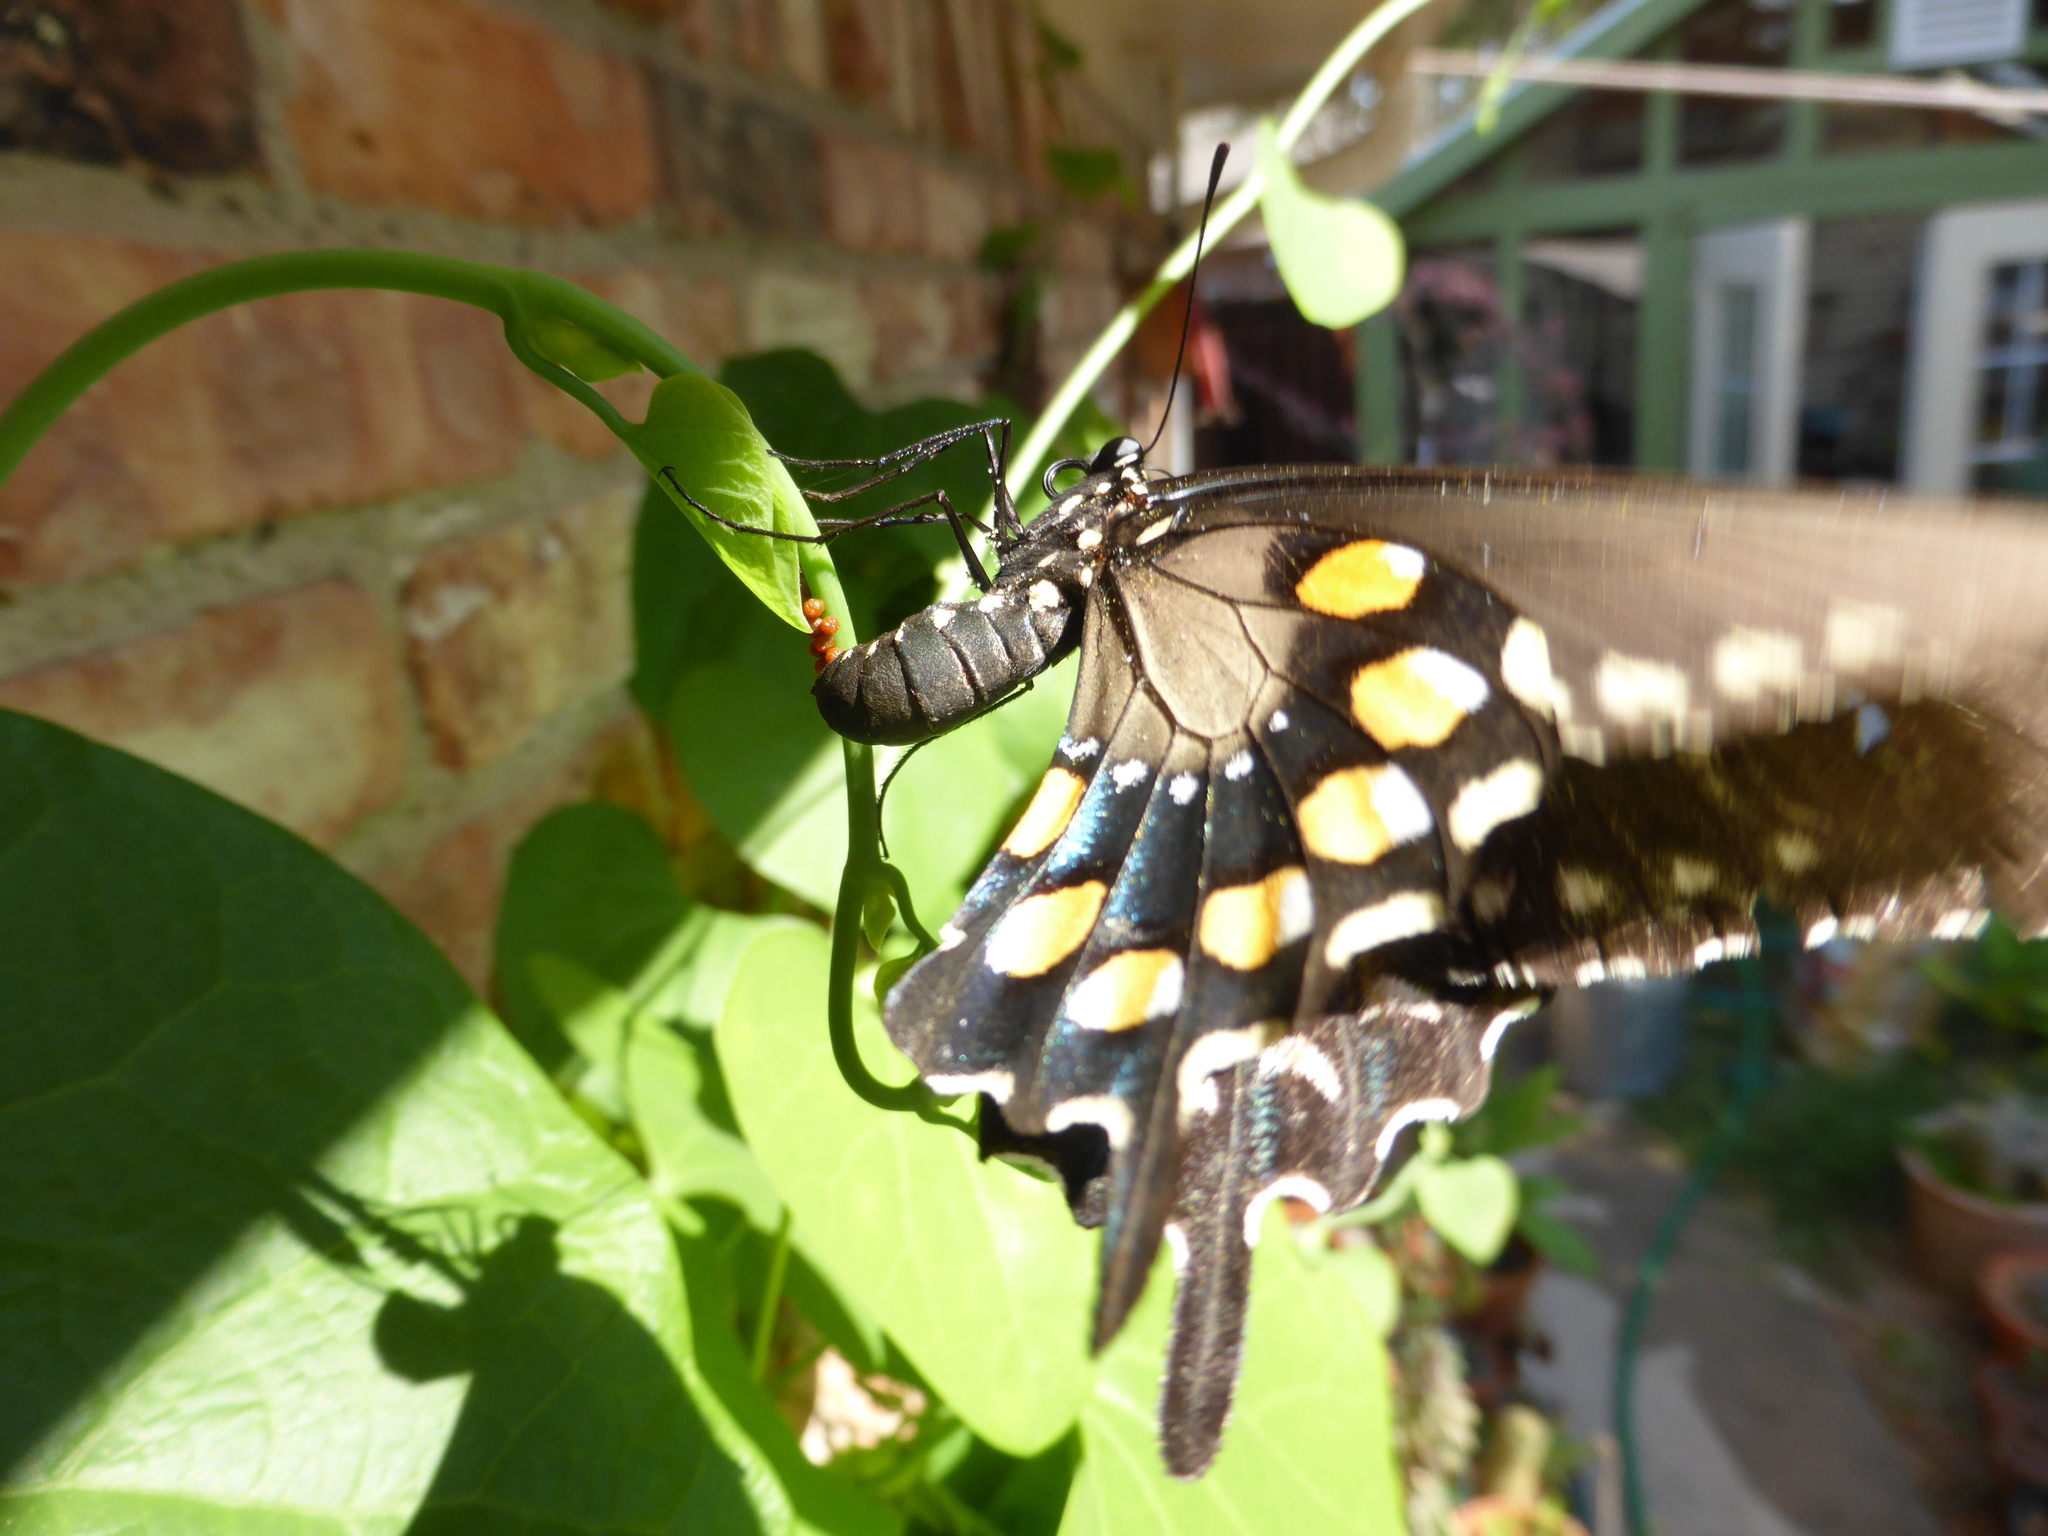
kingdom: Animalia
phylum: Arthropoda
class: Insecta
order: Lepidoptera
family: Papilionidae
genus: Battus
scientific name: Battus philenor
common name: Pipevine swallowtail
